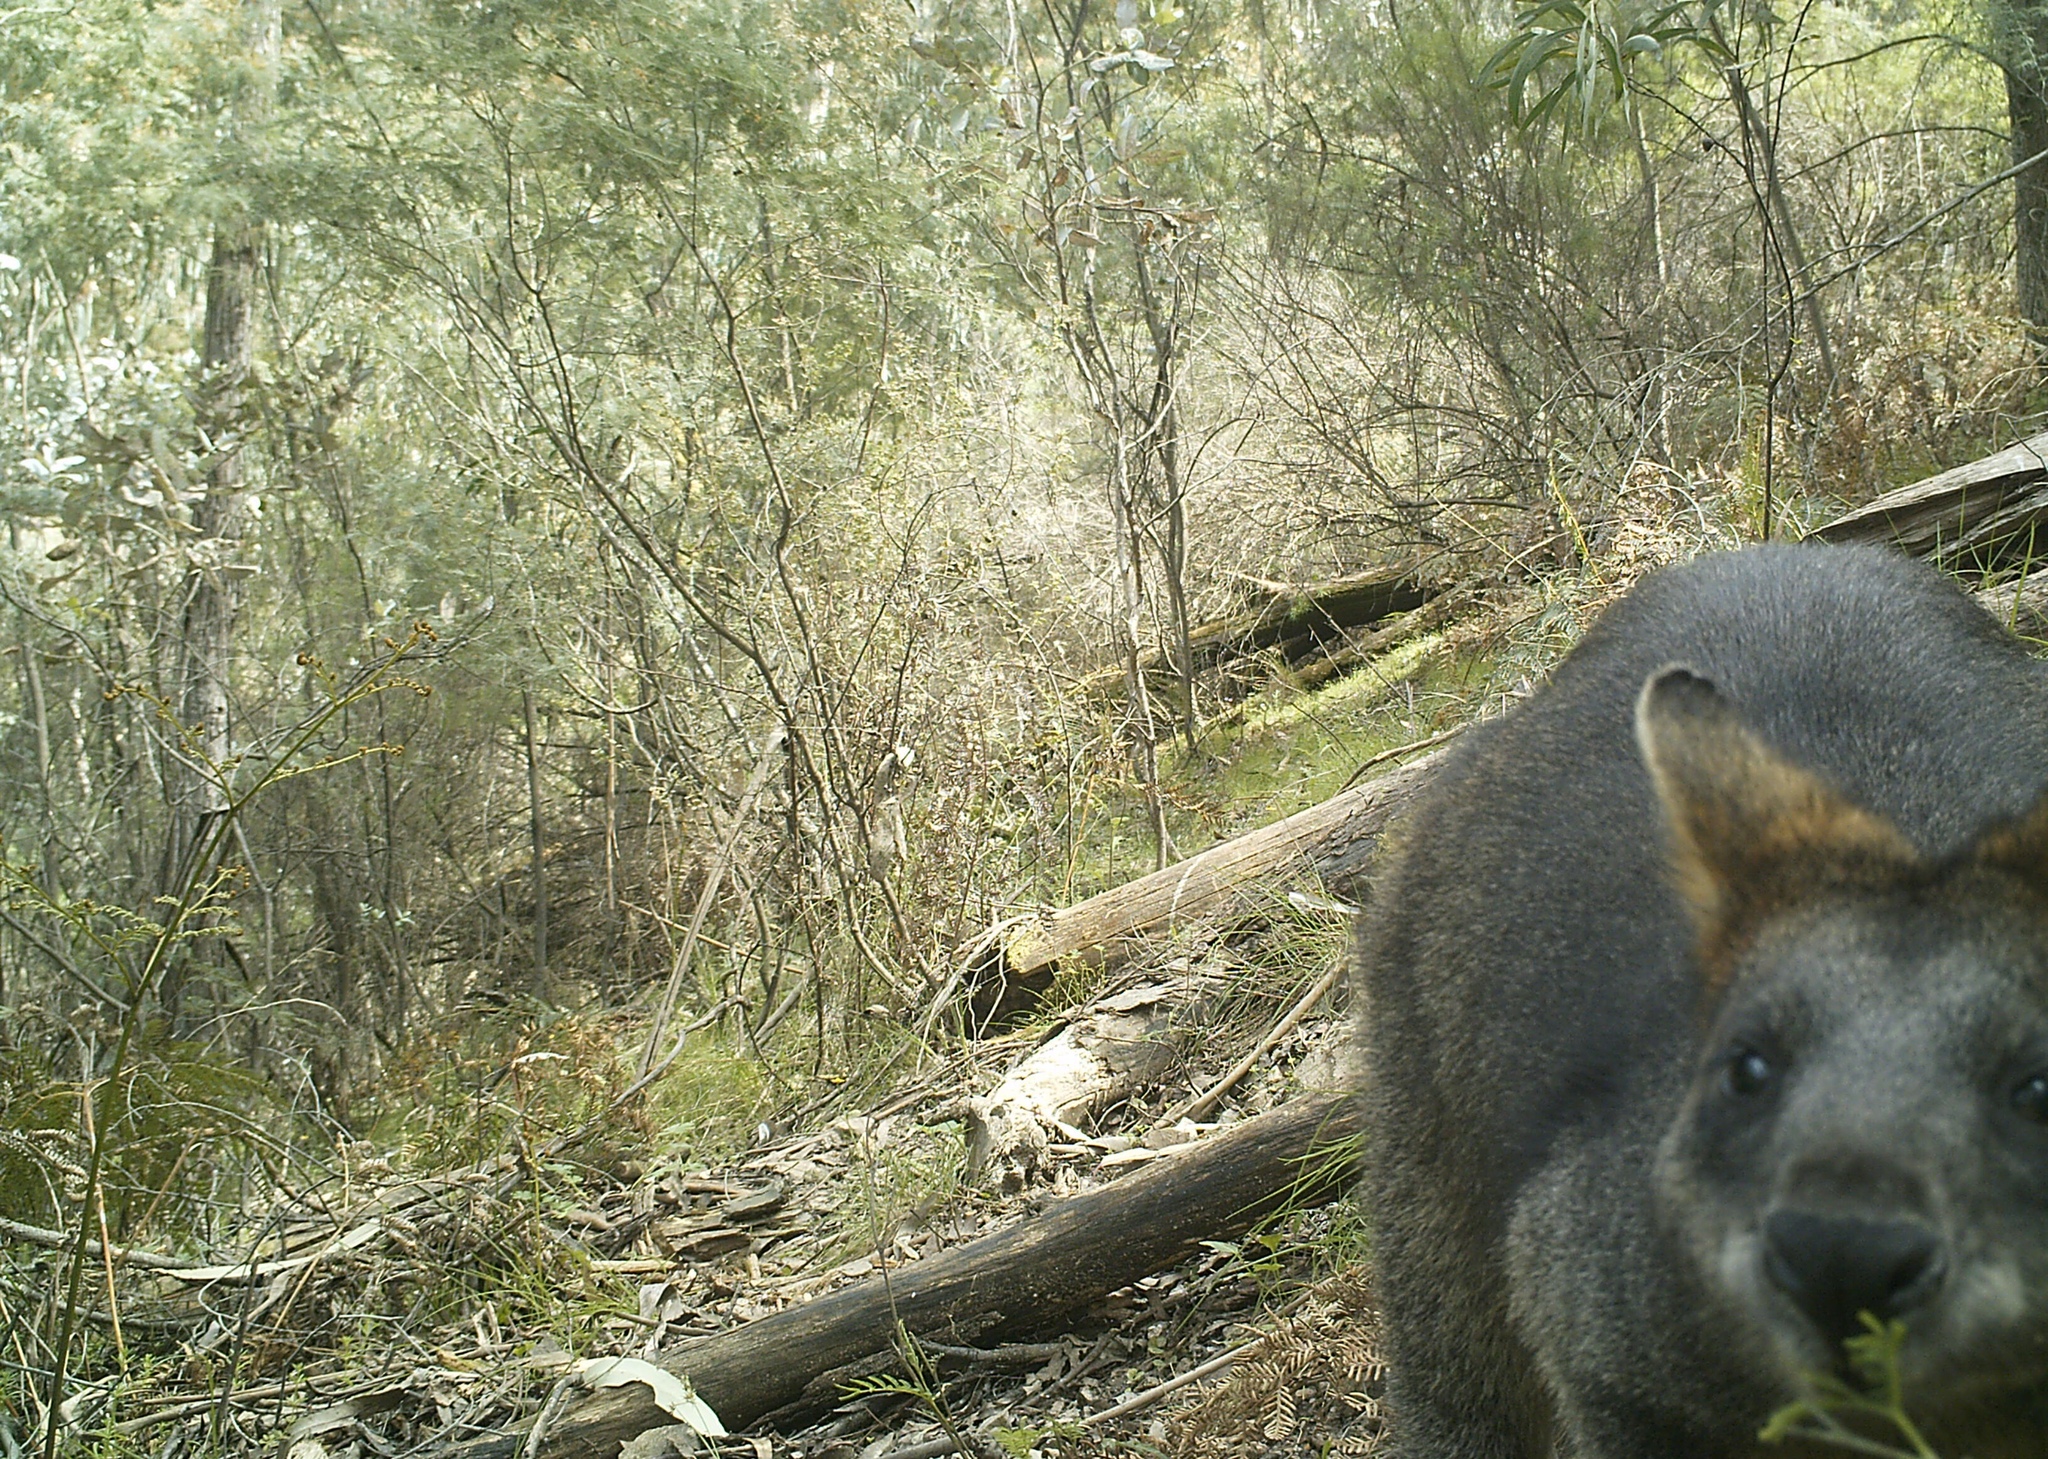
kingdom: Animalia
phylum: Chordata
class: Mammalia
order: Diprotodontia
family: Macropodidae
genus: Wallabia
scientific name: Wallabia bicolor
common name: Swamp wallaby
